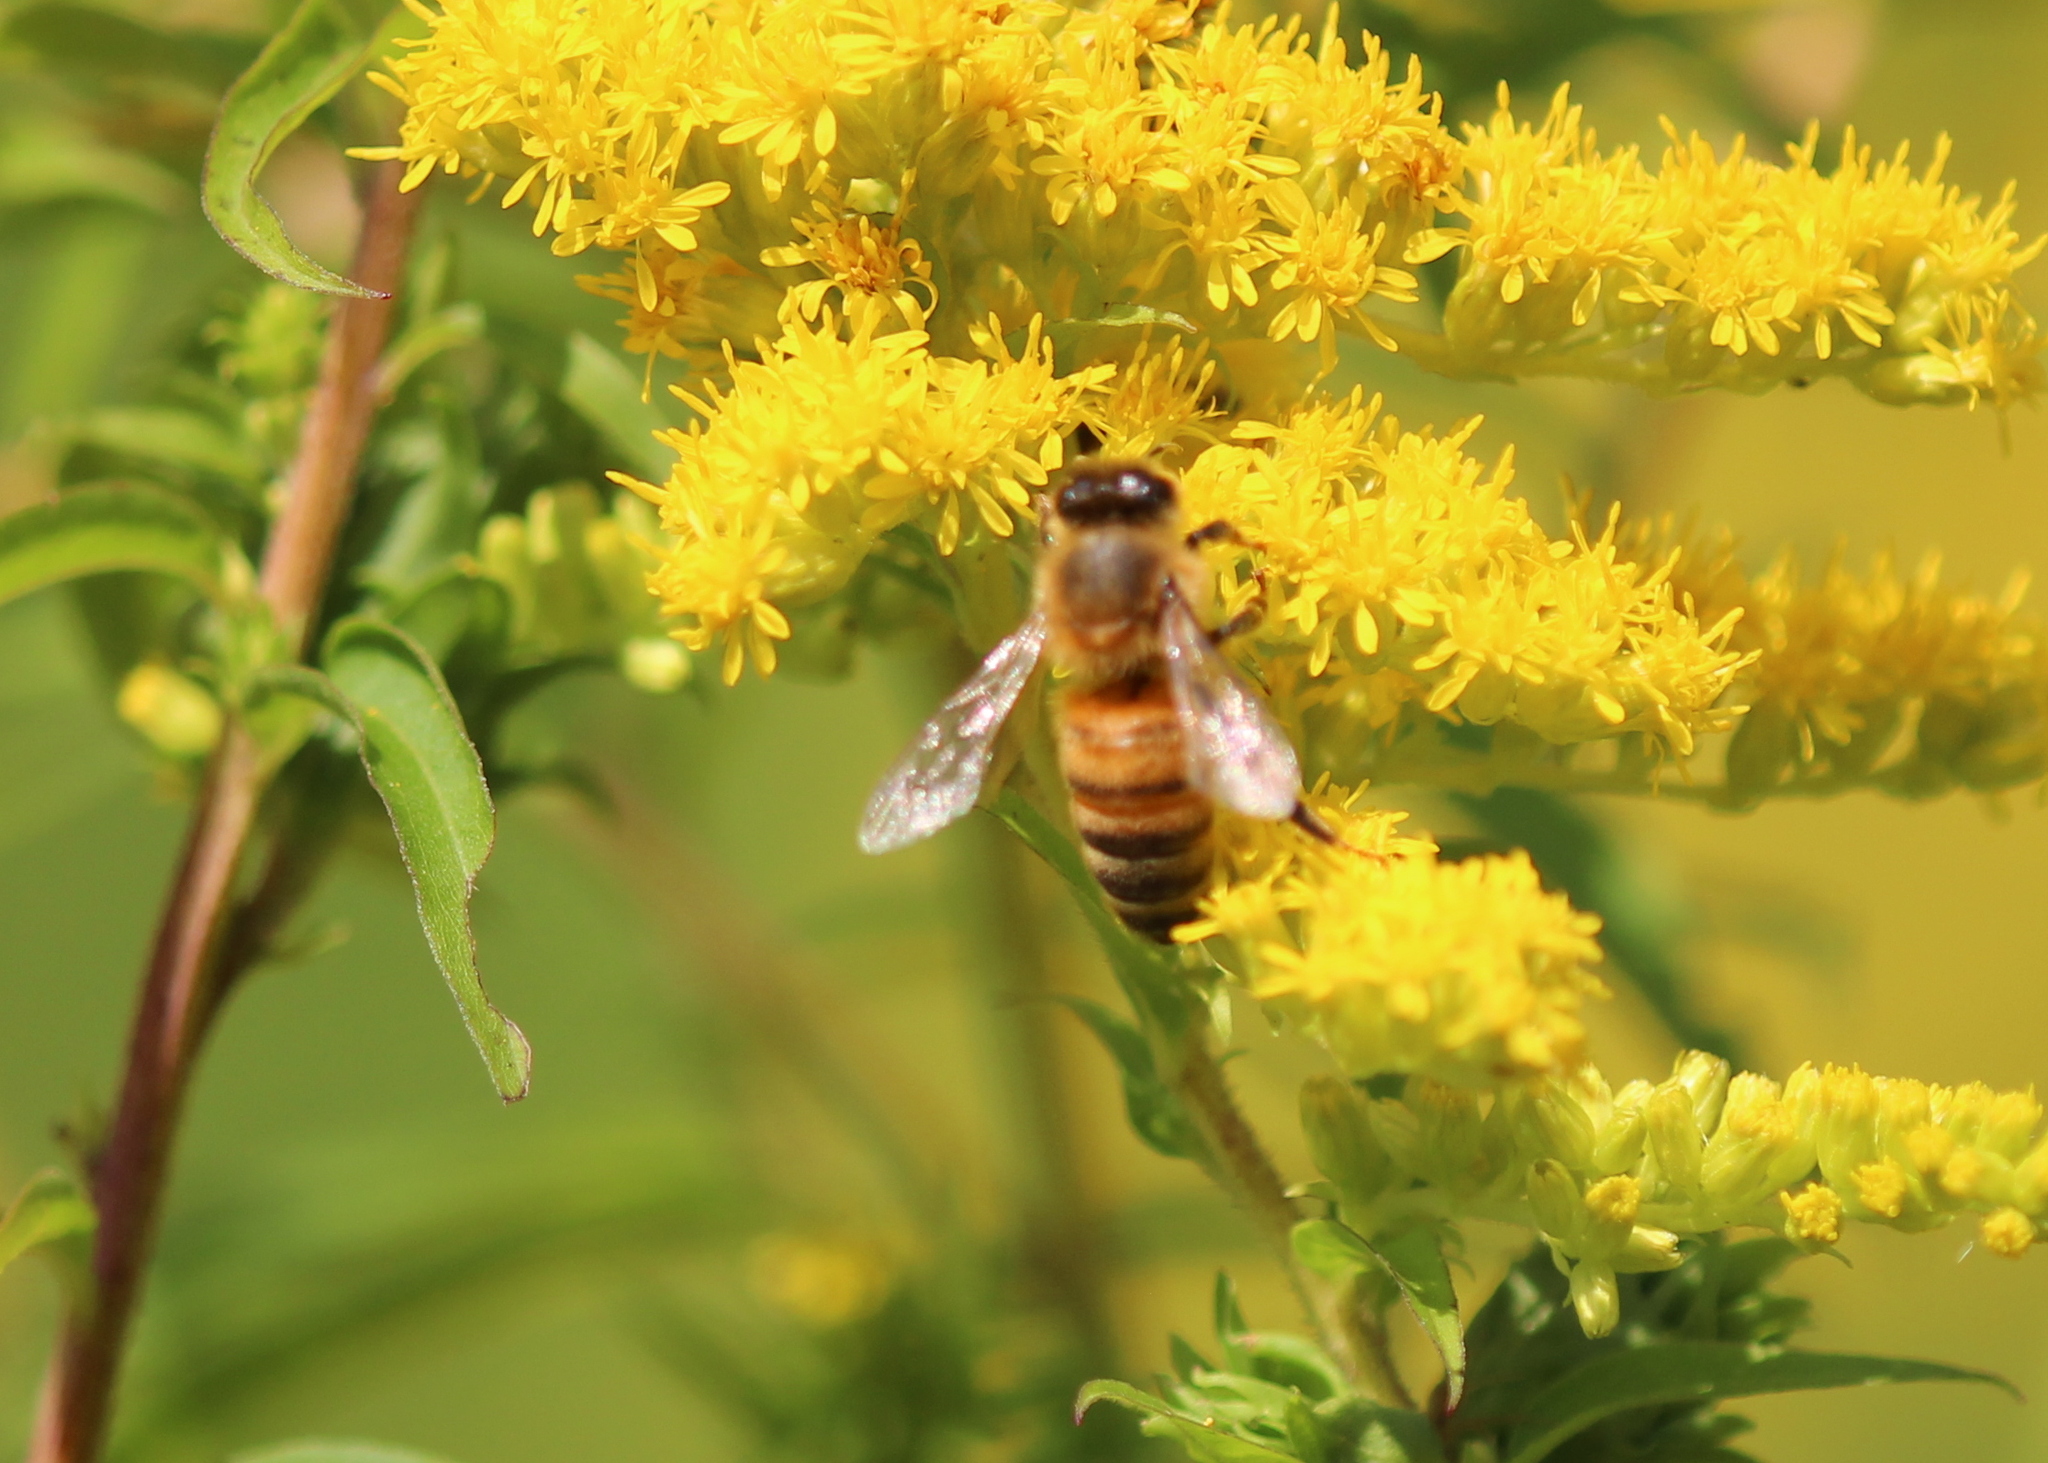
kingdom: Animalia
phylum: Arthropoda
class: Insecta
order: Hymenoptera
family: Apidae
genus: Apis
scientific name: Apis mellifera
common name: Honey bee
